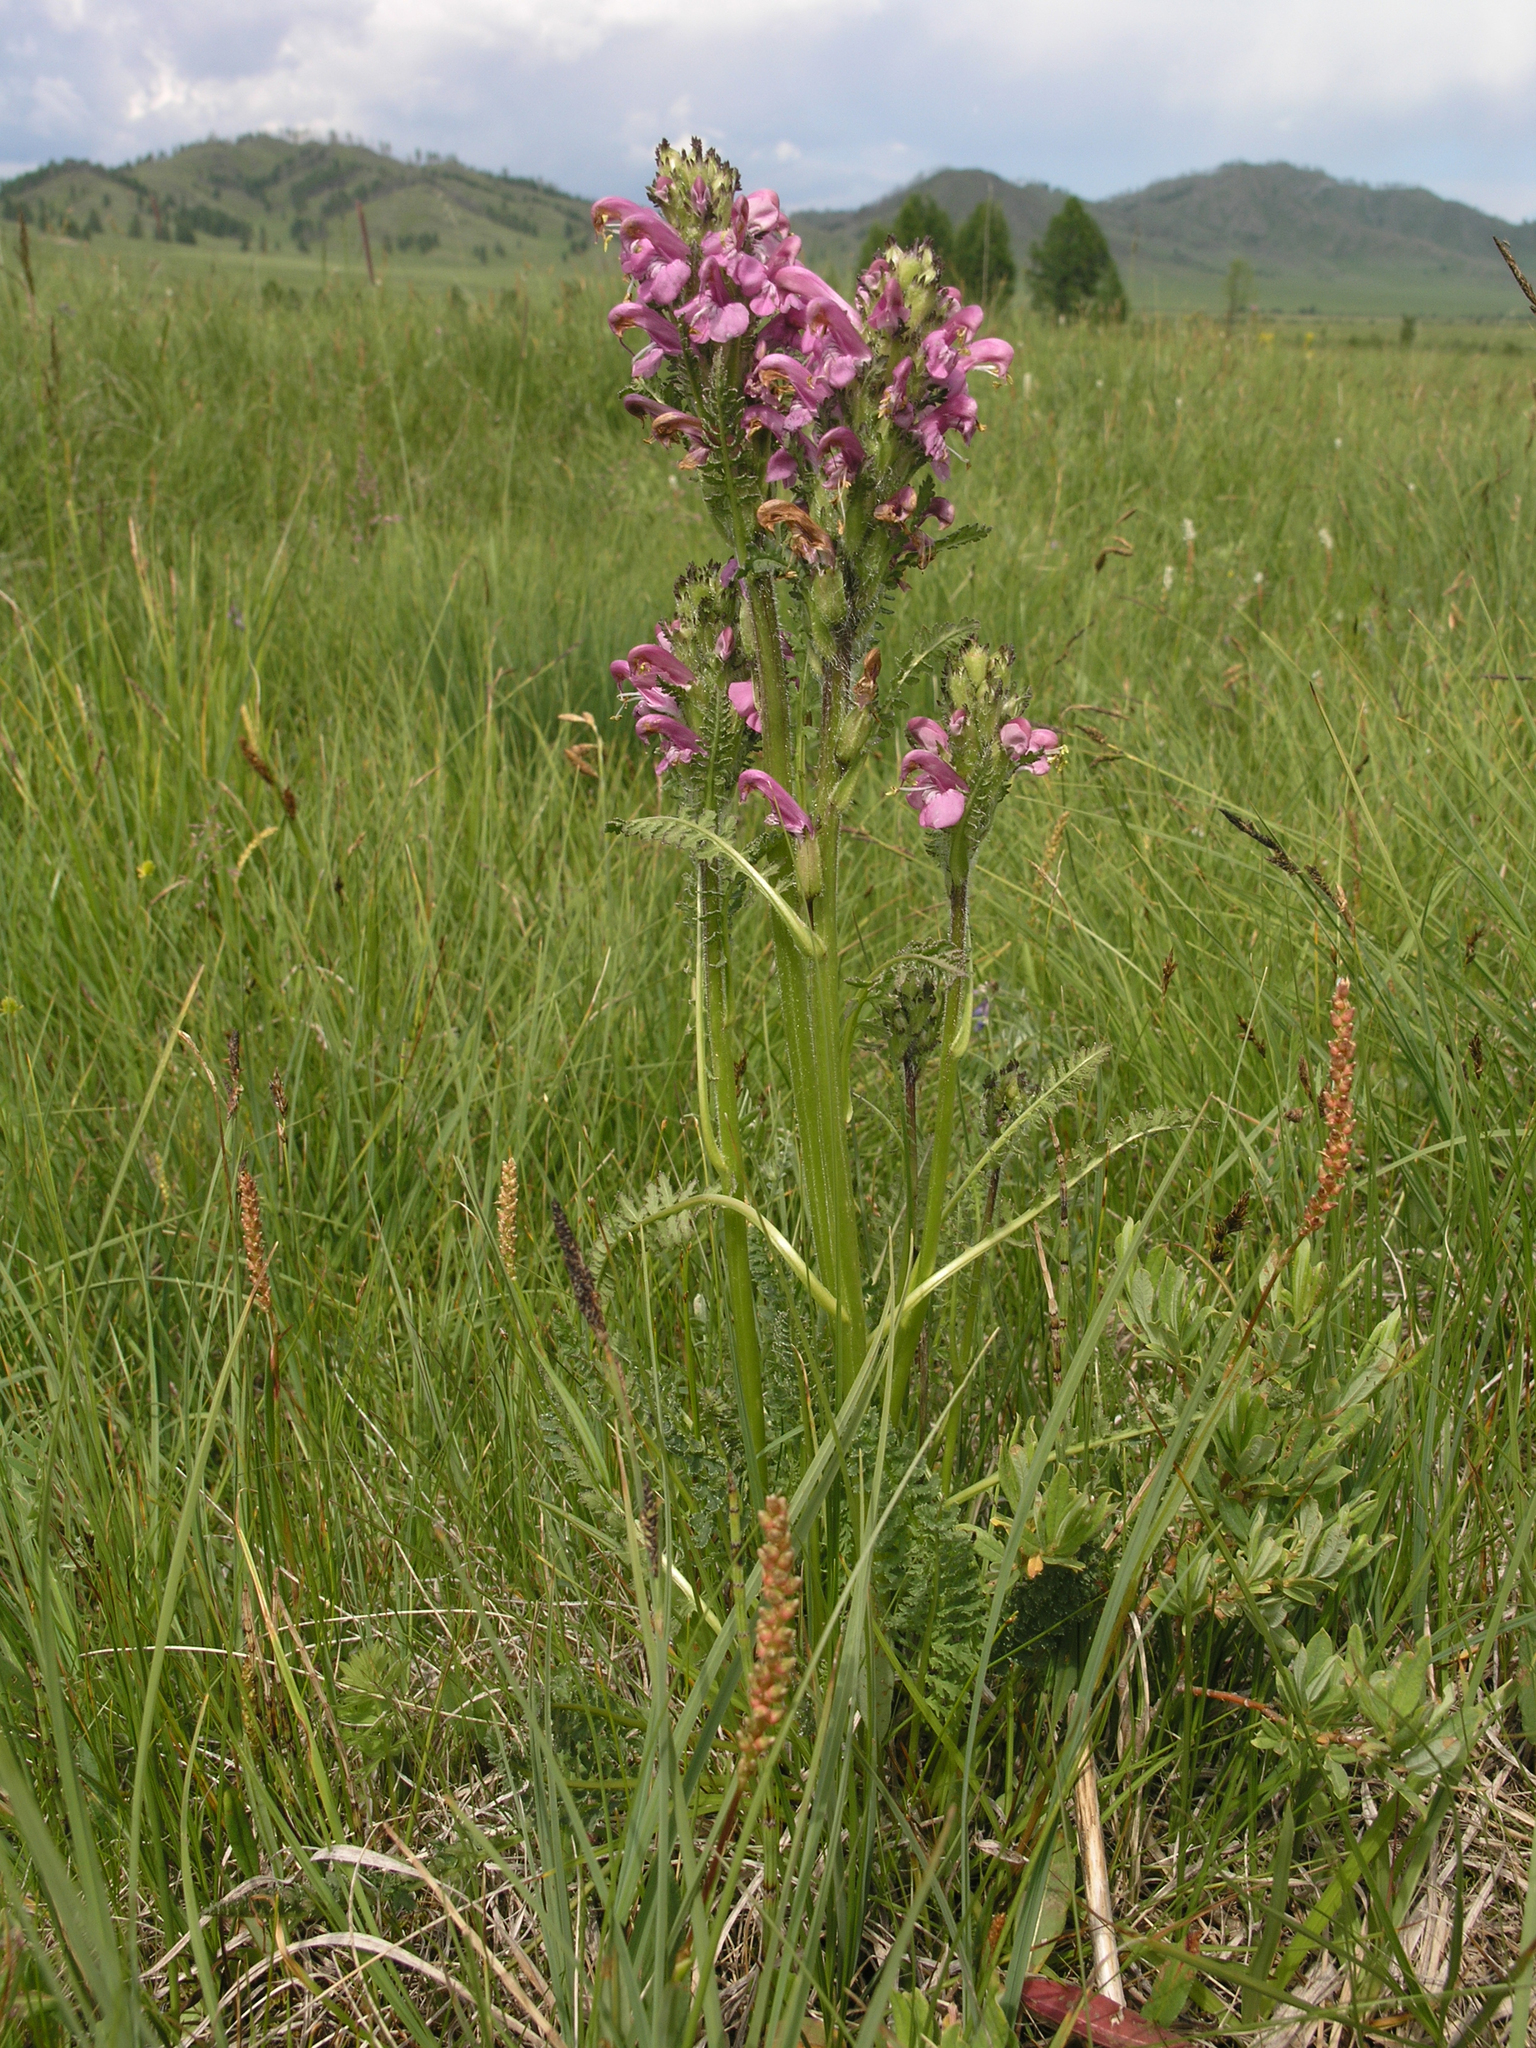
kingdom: Plantae
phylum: Tracheophyta
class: Magnoliopsida
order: Lamiales
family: Orobanchaceae
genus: Pedicularis
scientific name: Pedicularis uliginosa
